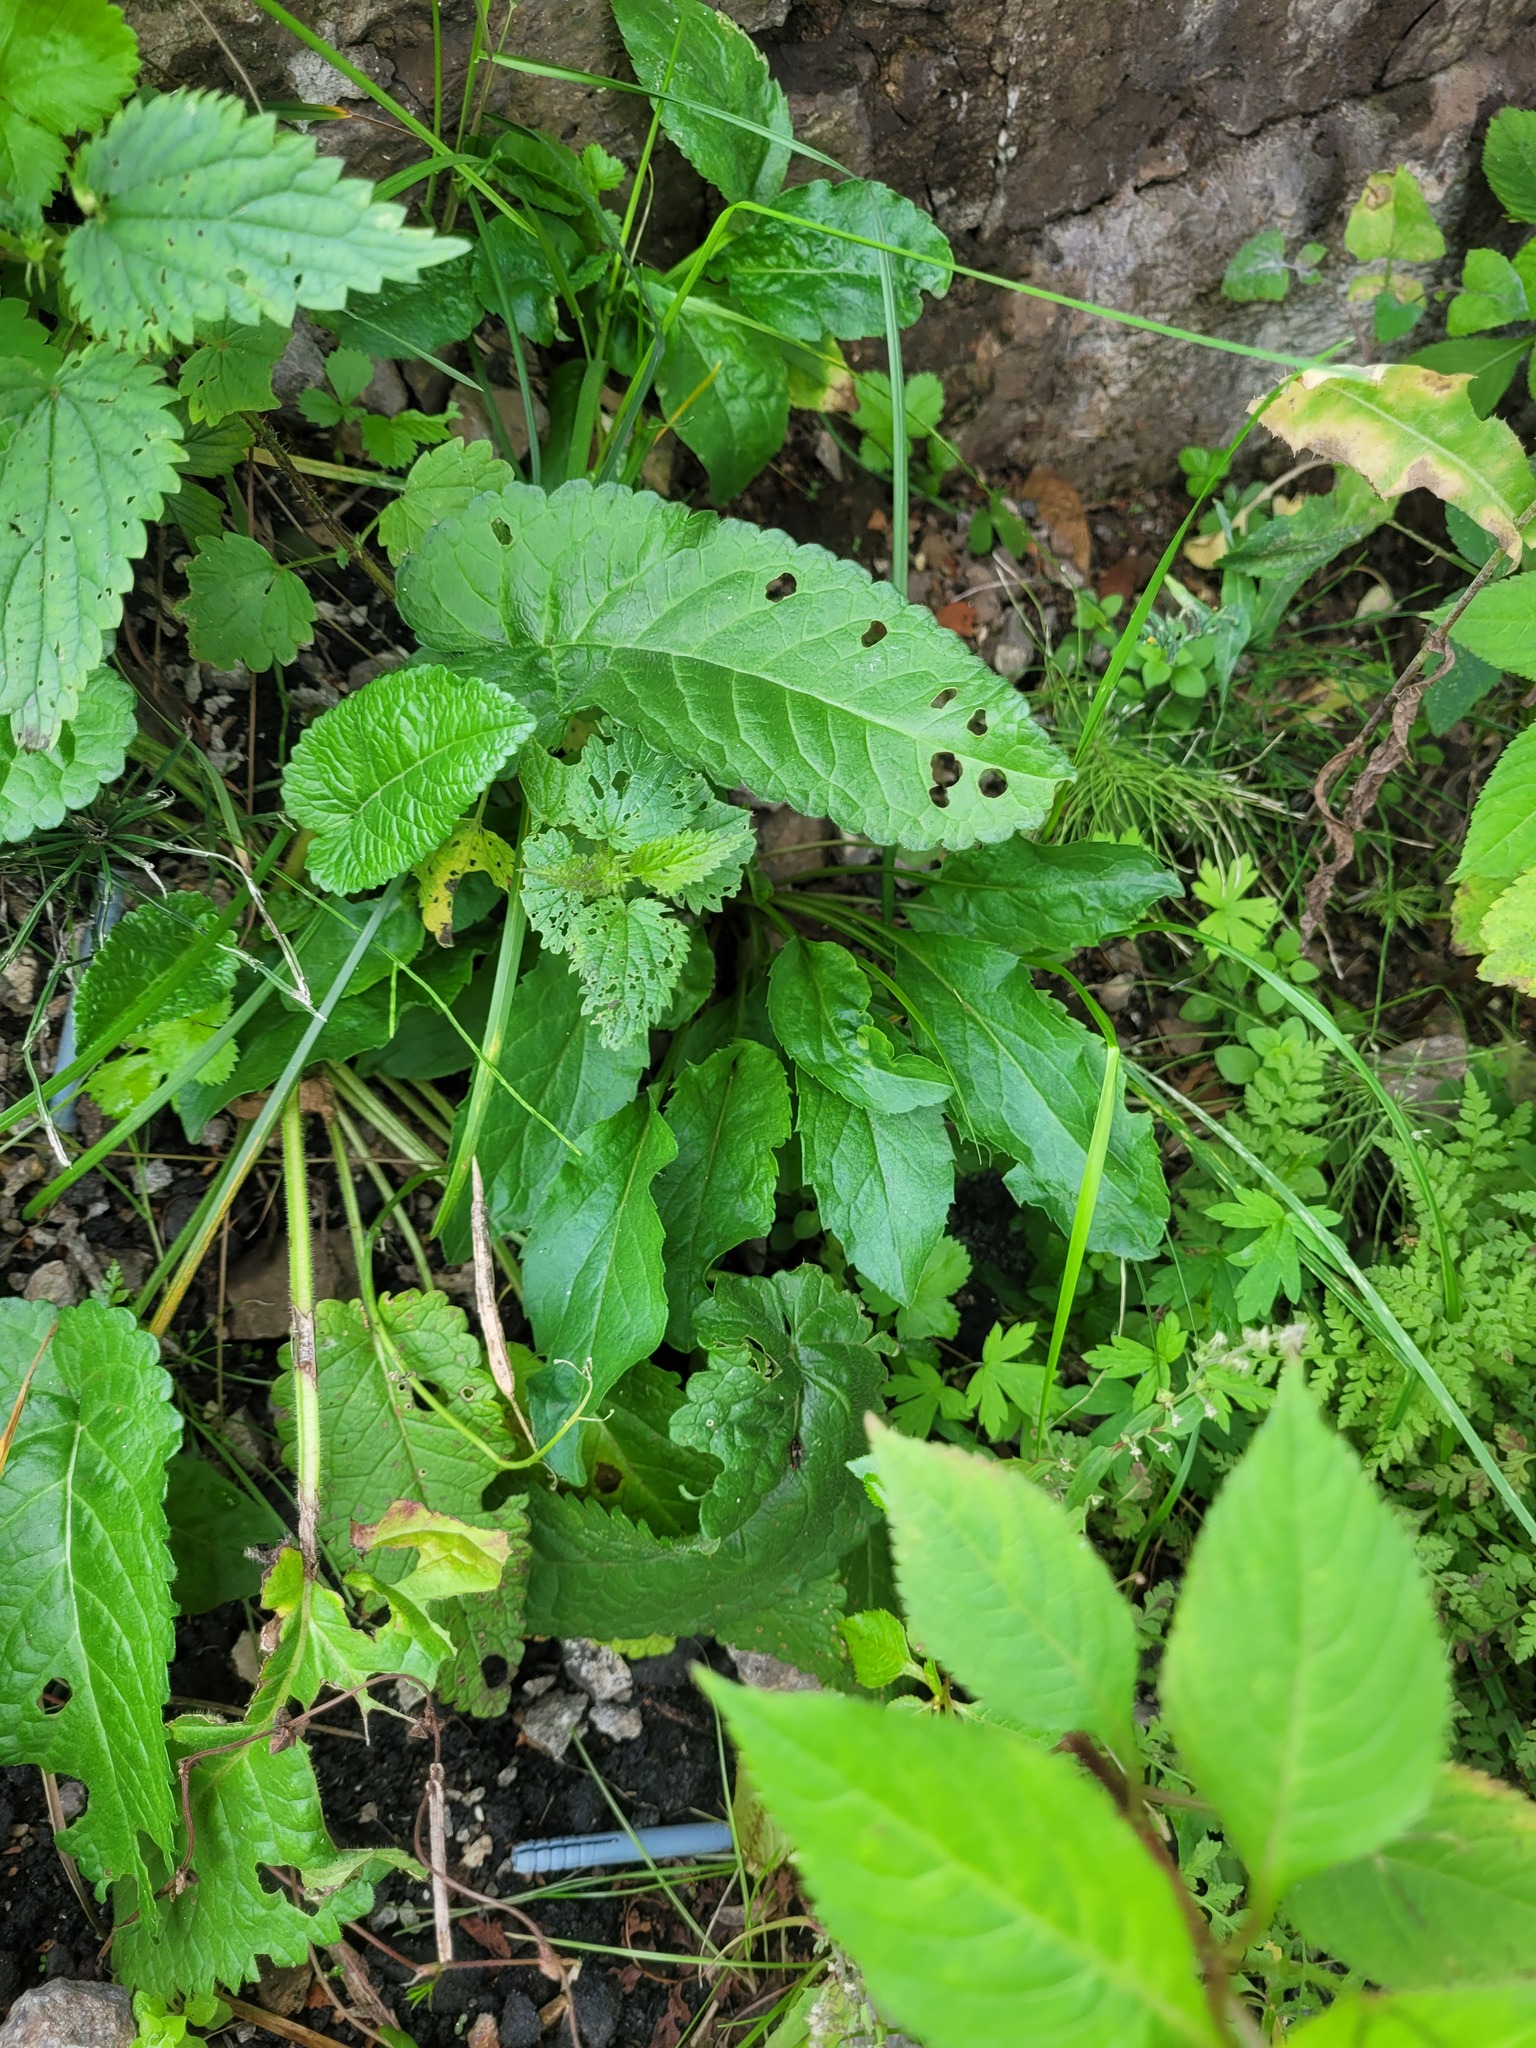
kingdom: Plantae
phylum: Tracheophyta
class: Magnoliopsida
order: Asterales
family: Asteraceae
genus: Solidago
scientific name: Solidago virgaurea
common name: Goldenrod
